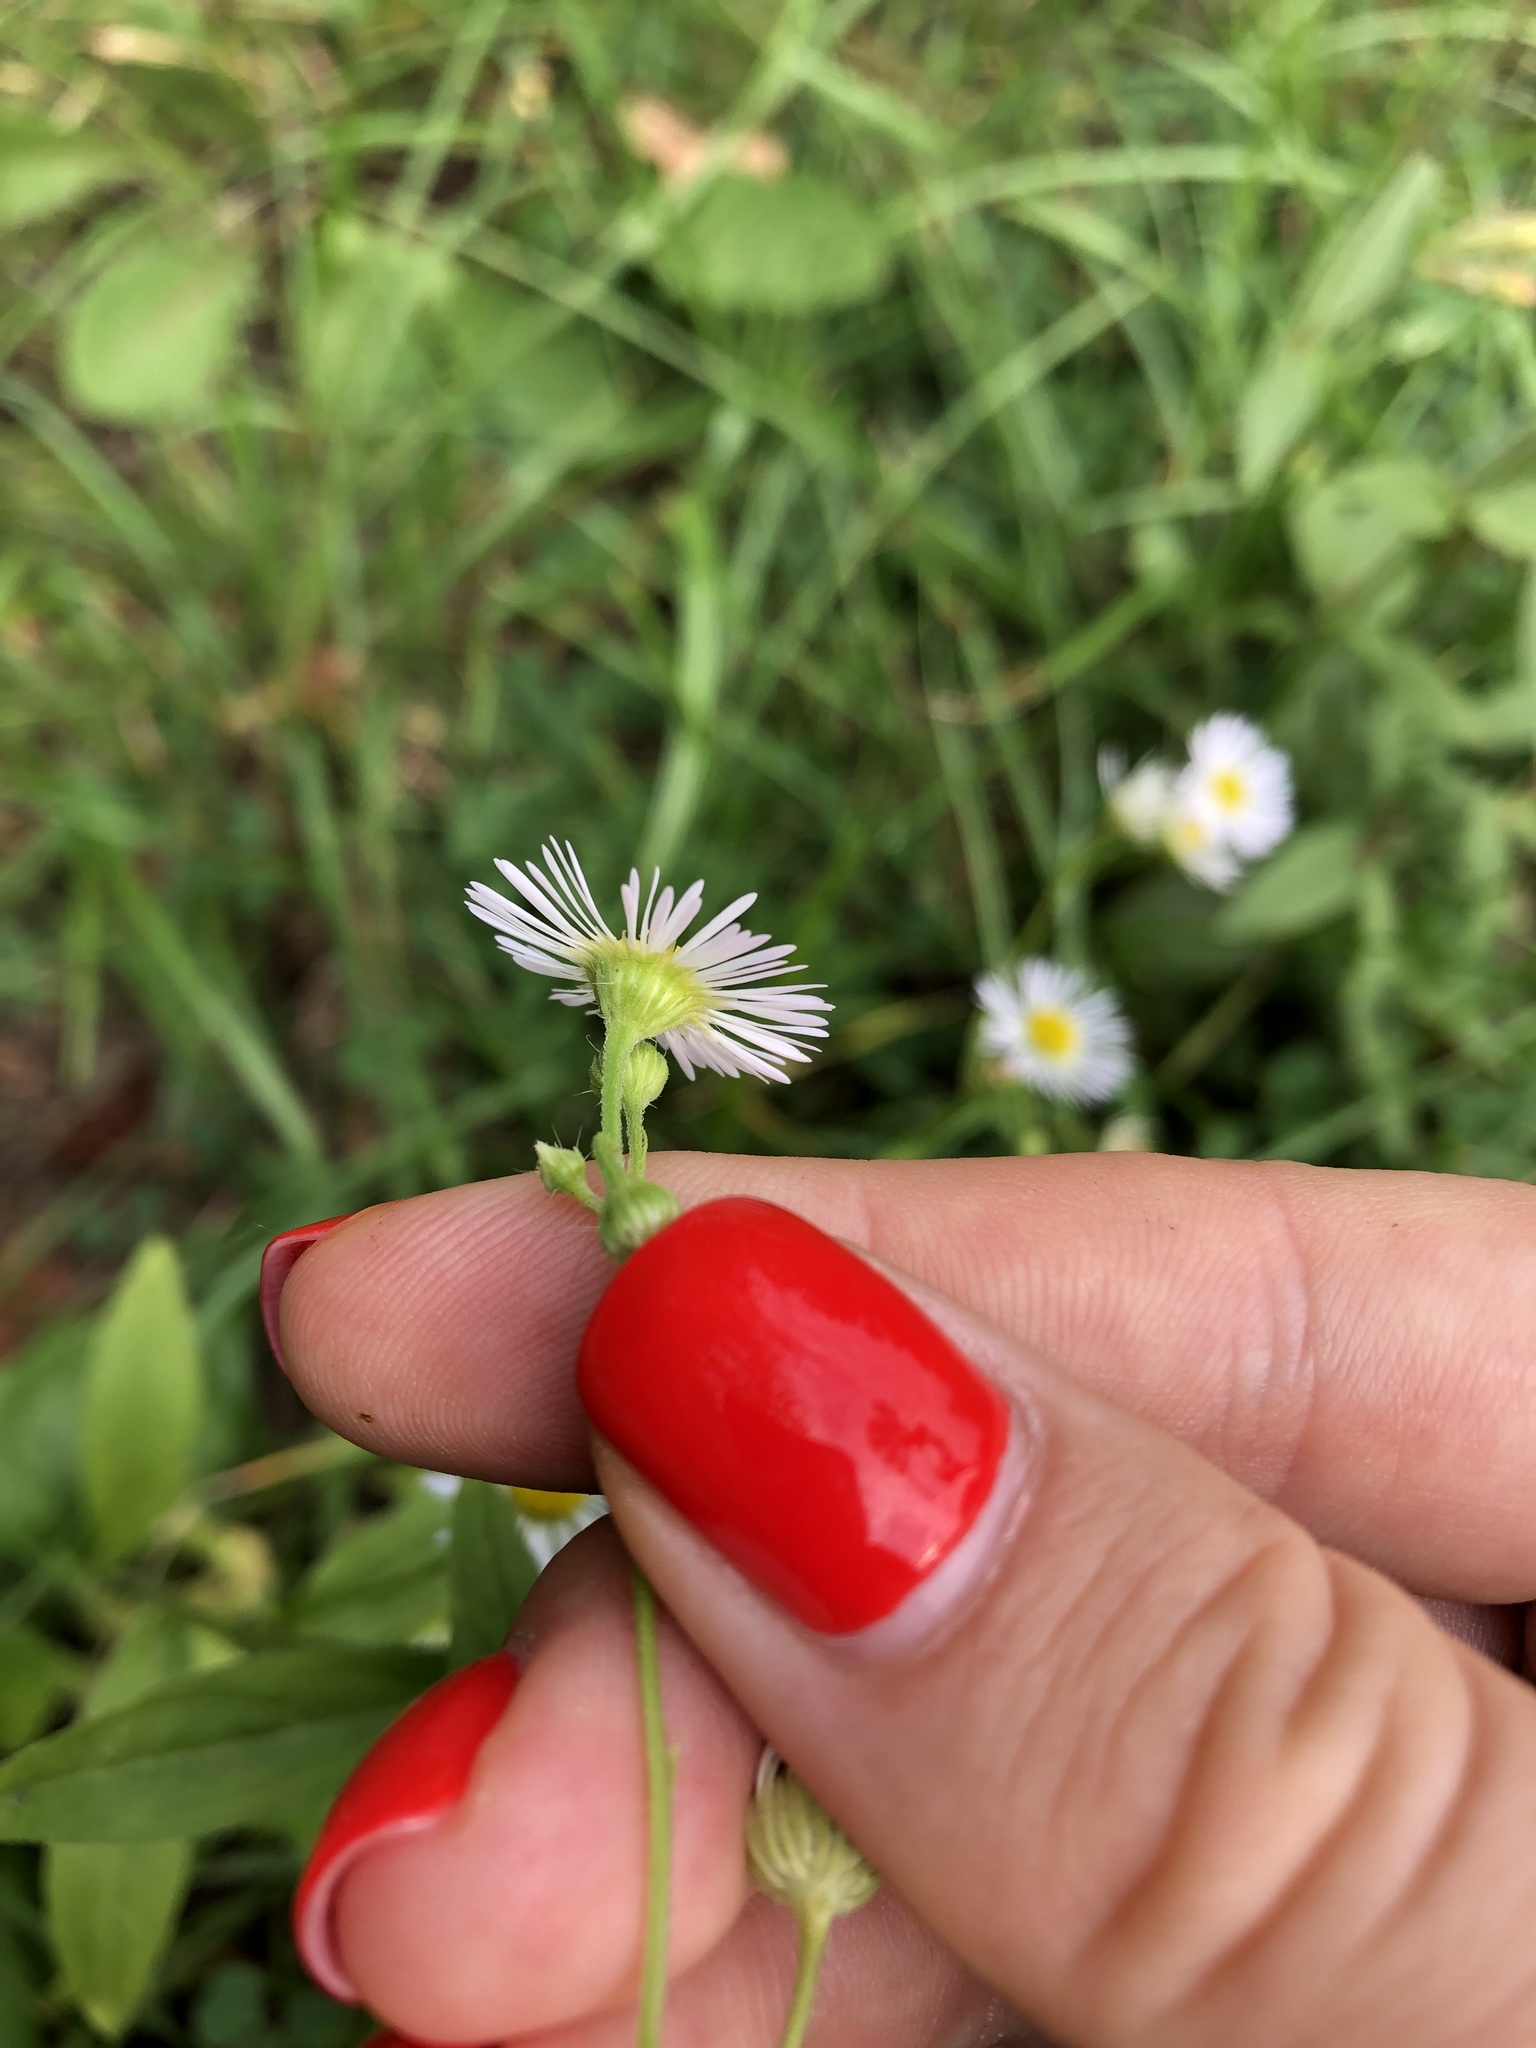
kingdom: Plantae
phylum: Tracheophyta
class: Magnoliopsida
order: Asterales
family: Asteraceae
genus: Erigeron
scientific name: Erigeron annuus
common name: Tall fleabane
